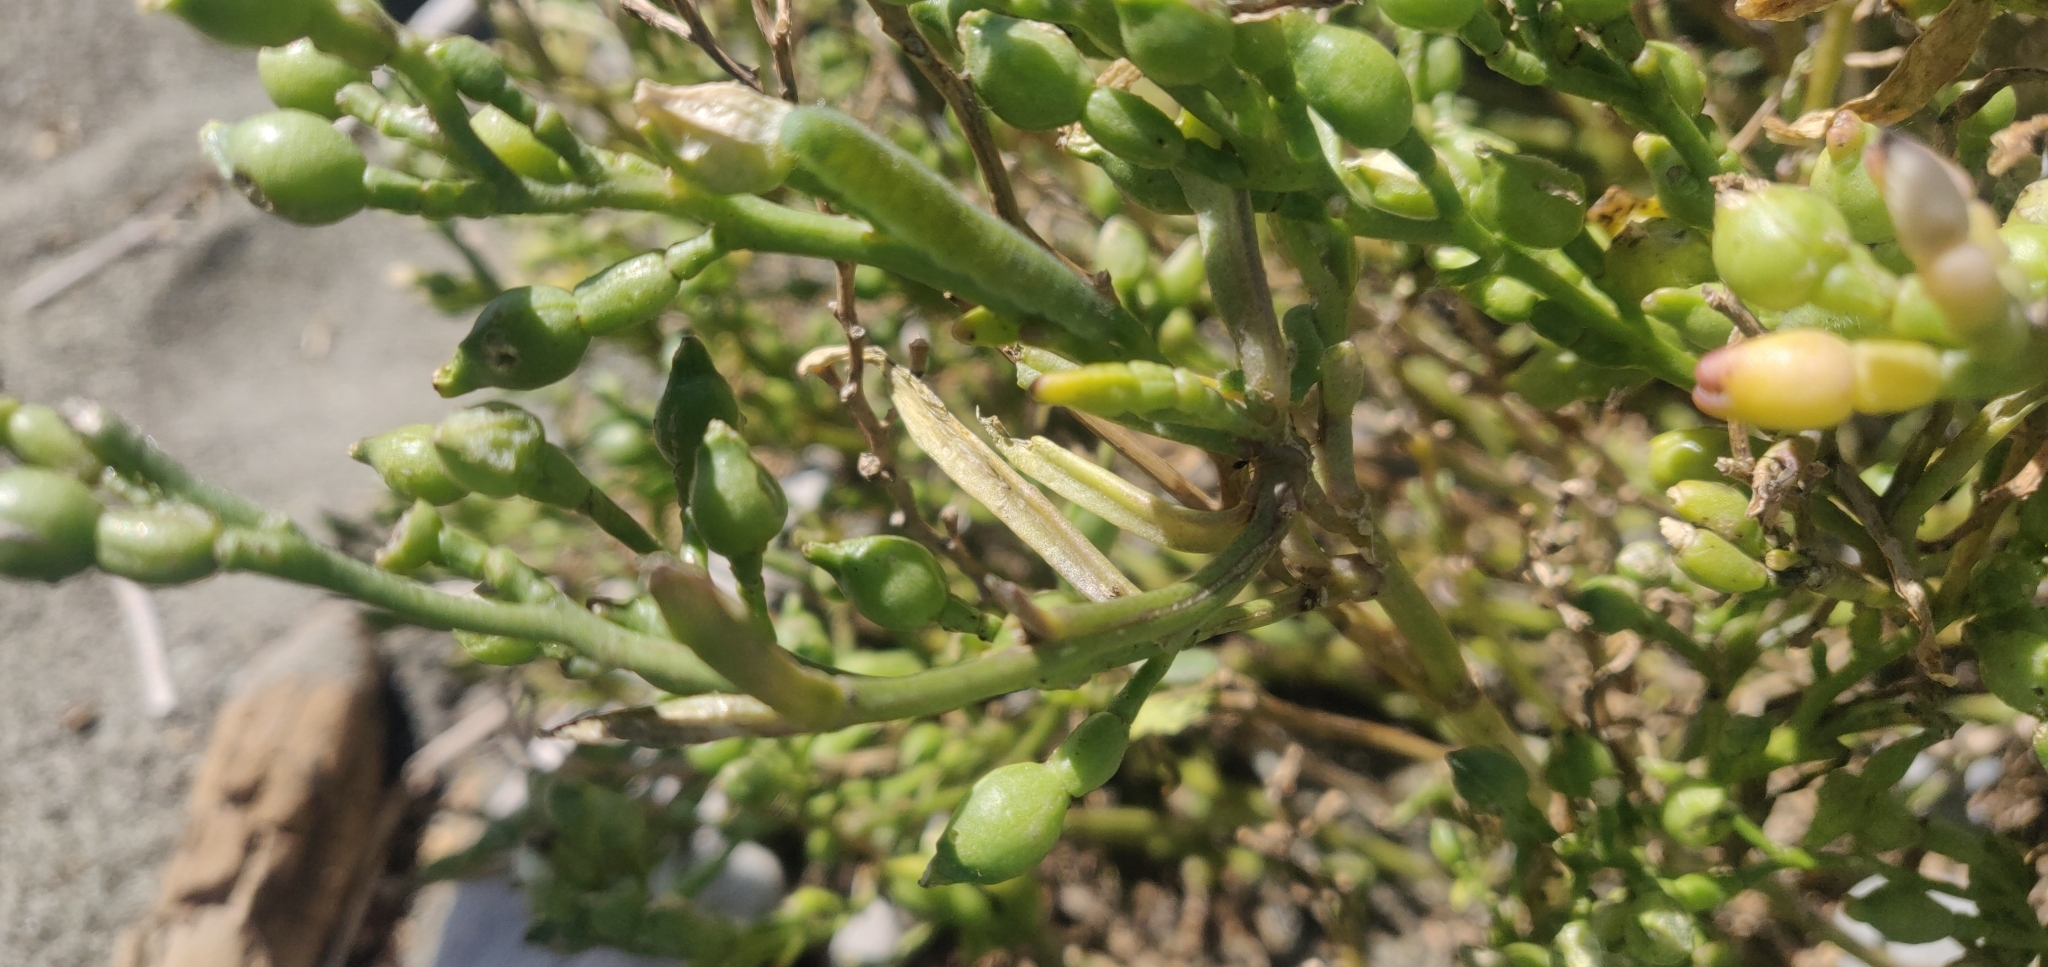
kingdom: Animalia
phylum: Arthropoda
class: Insecta
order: Lepidoptera
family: Pieridae
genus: Pieris
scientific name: Pieris rapae
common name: Small white
